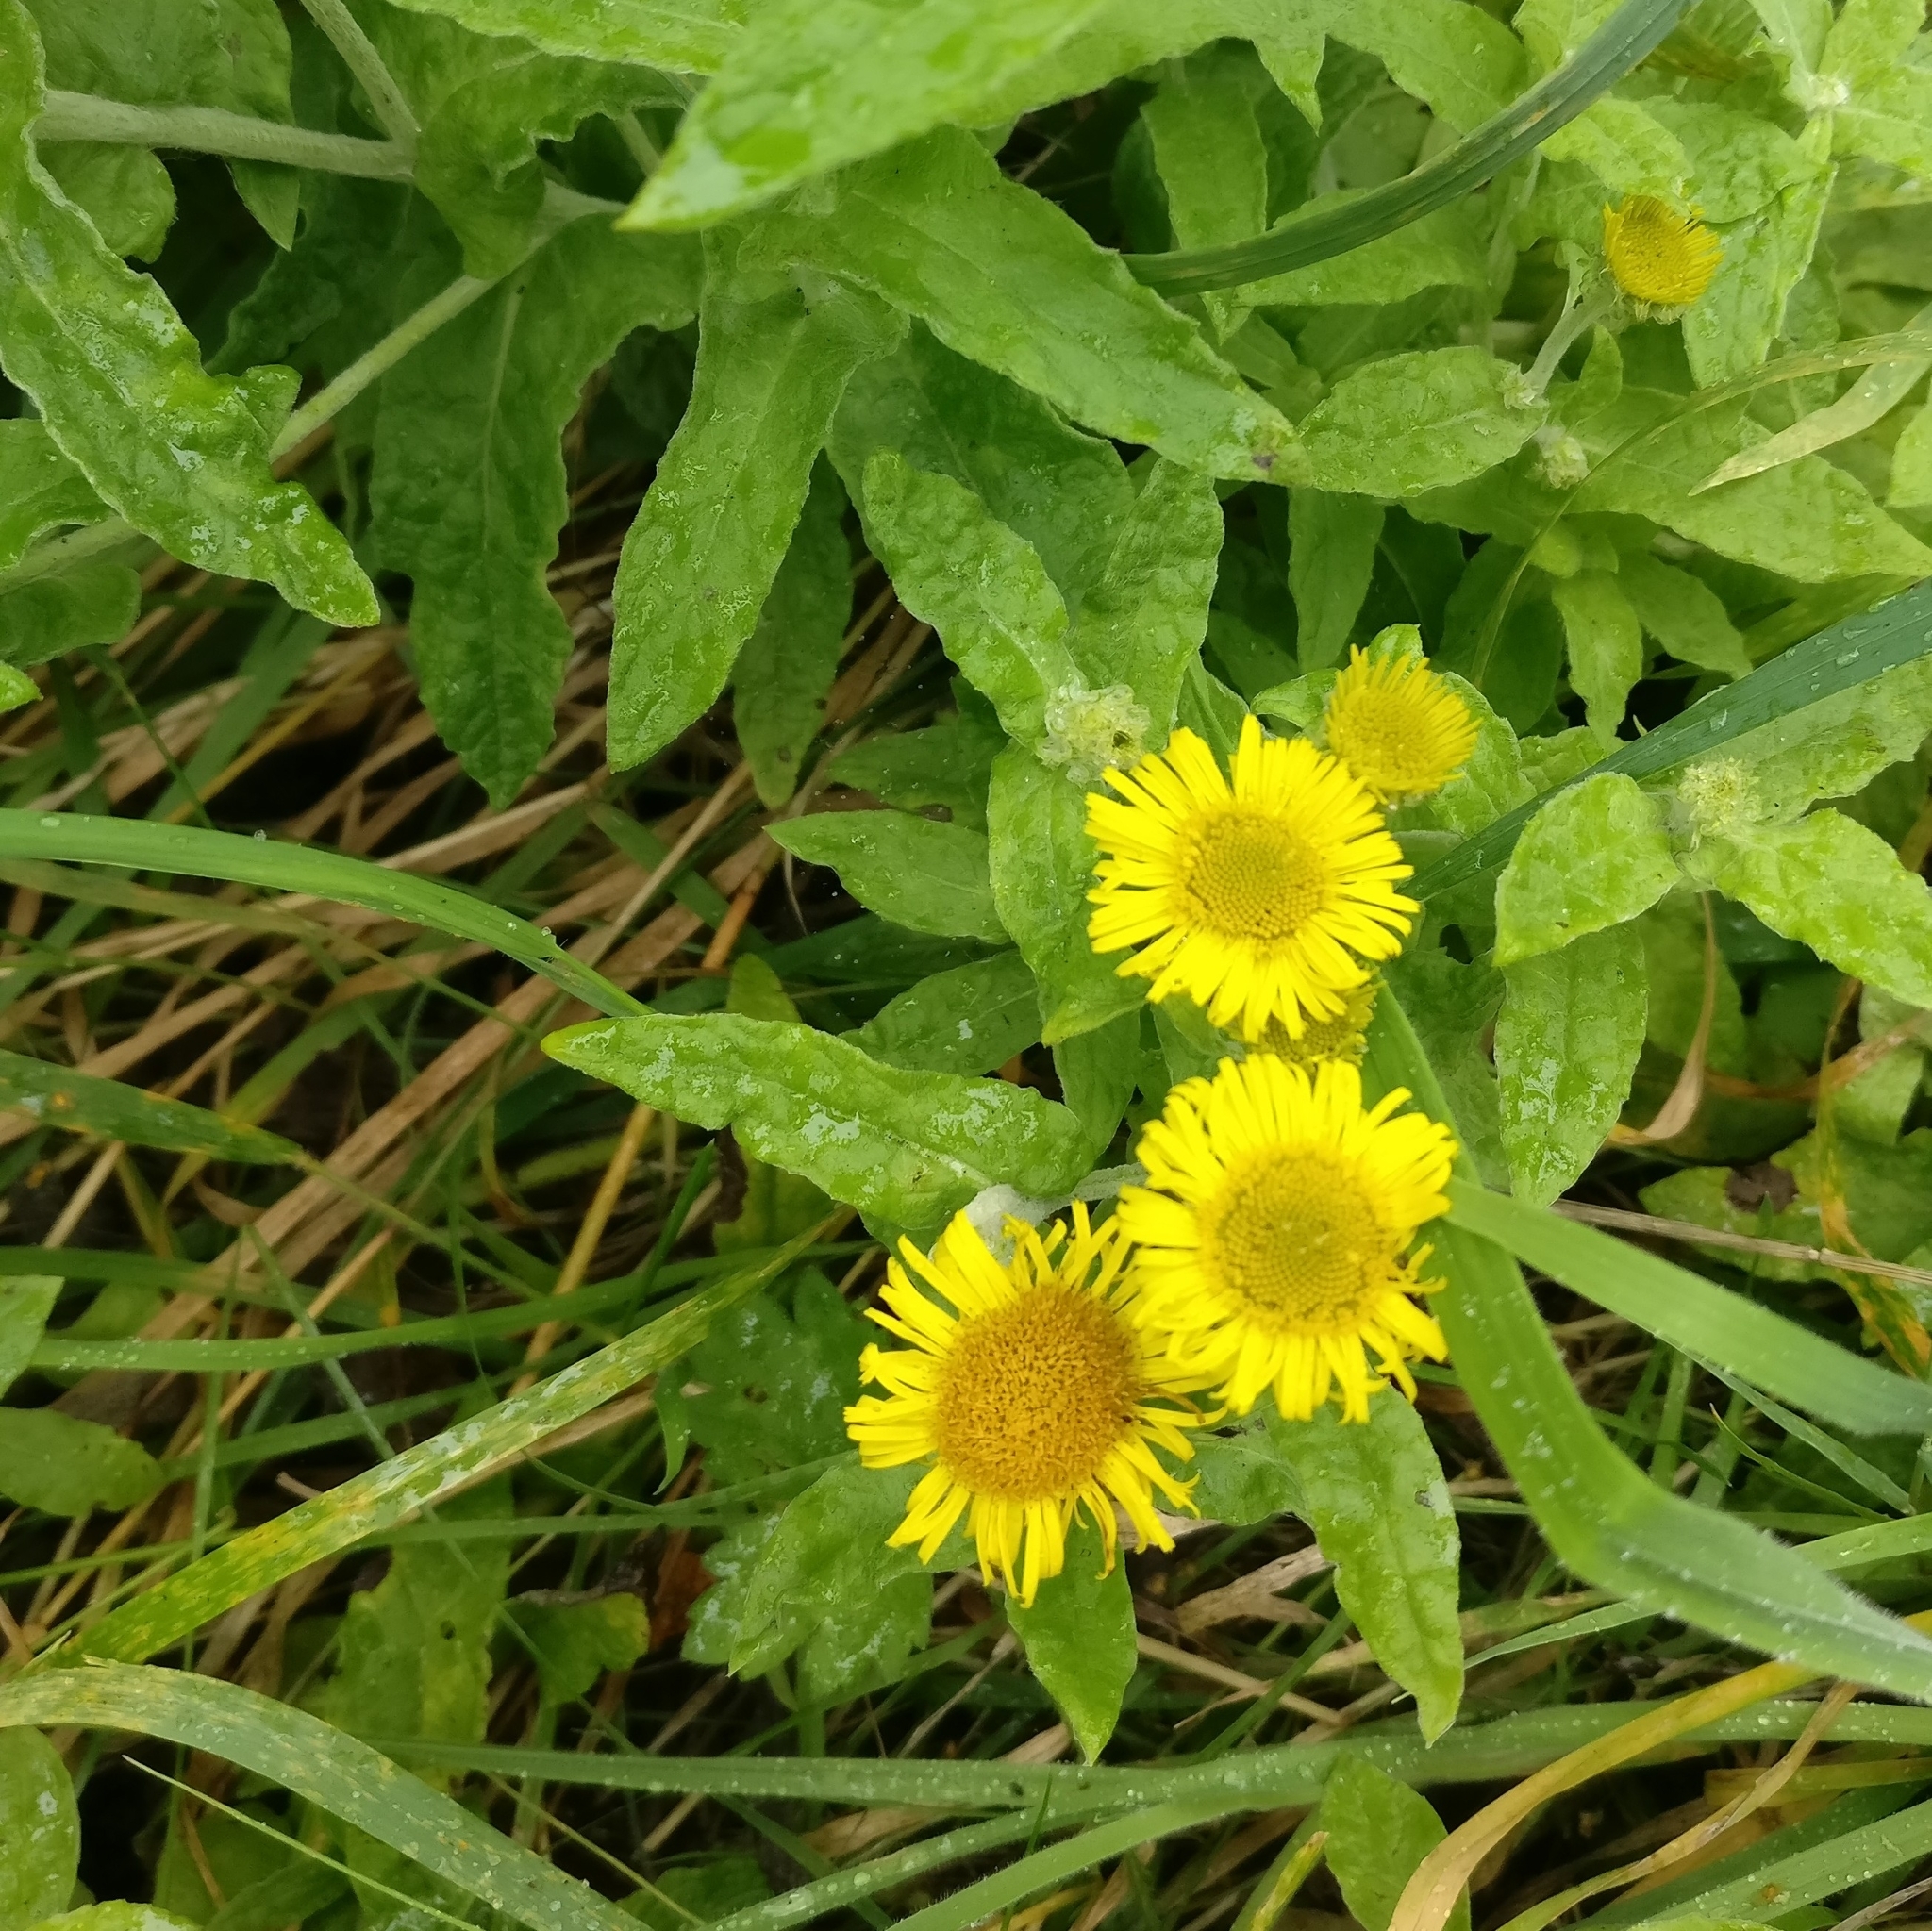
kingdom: Plantae
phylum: Tracheophyta
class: Magnoliopsida
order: Asterales
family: Asteraceae
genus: Pulicaria
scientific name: Pulicaria dysenterica
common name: Common fleabane
